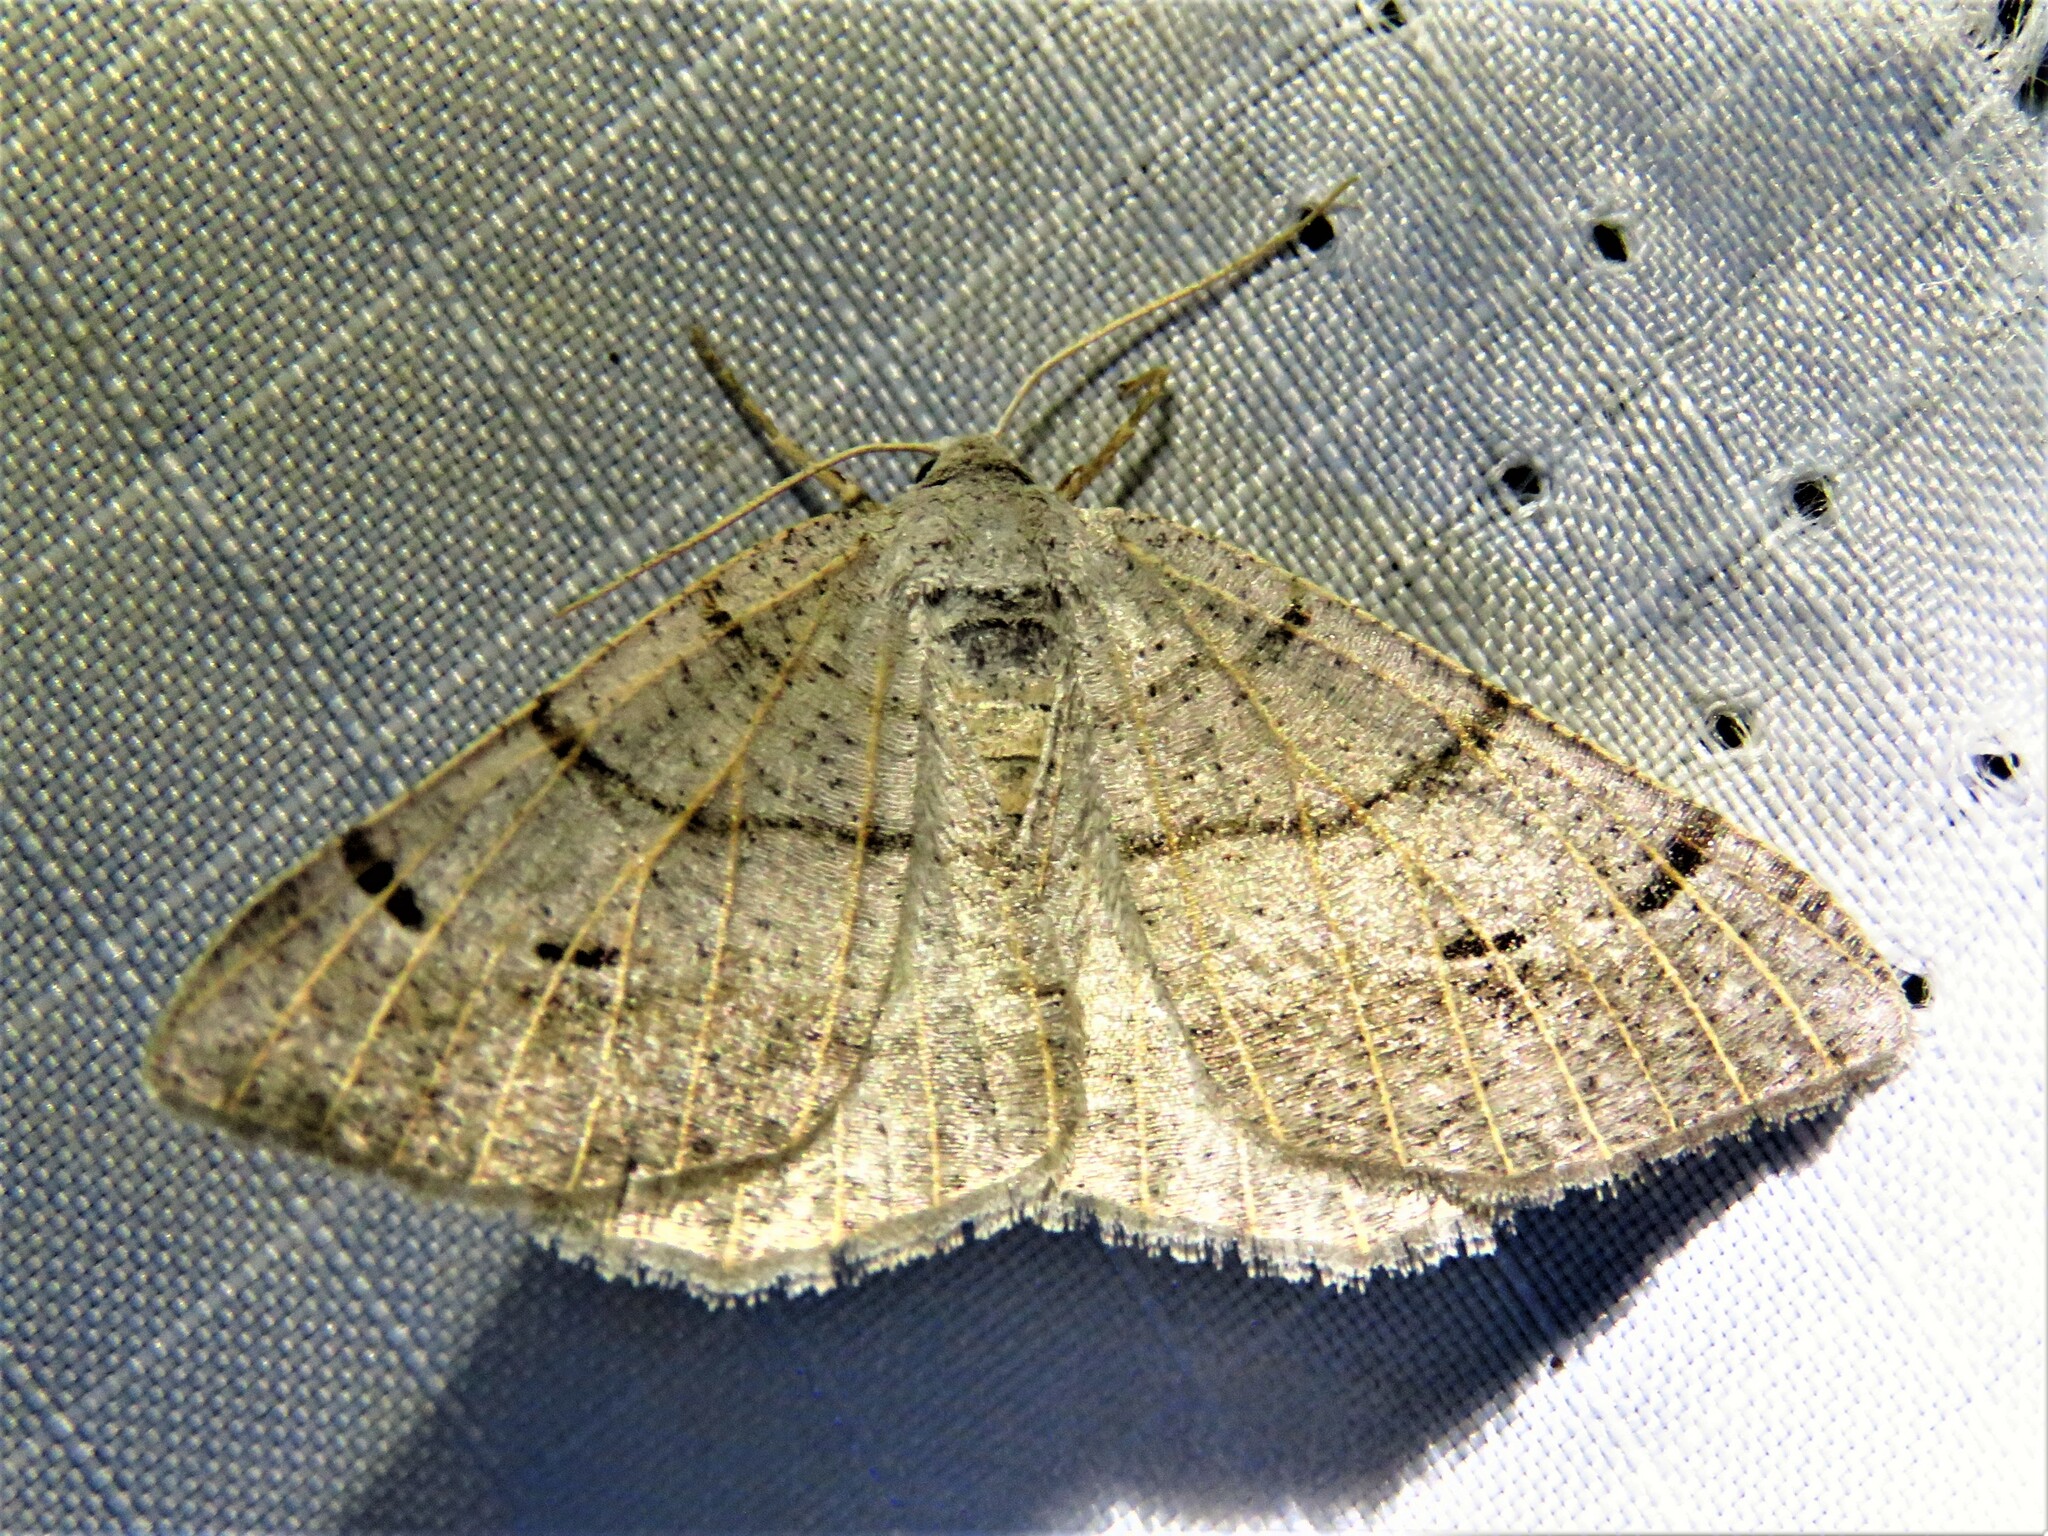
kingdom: Animalia
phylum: Arthropoda
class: Insecta
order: Lepidoptera
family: Geometridae
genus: Isturgia
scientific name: Isturgia dislocaria
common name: Pale-viened enconista
